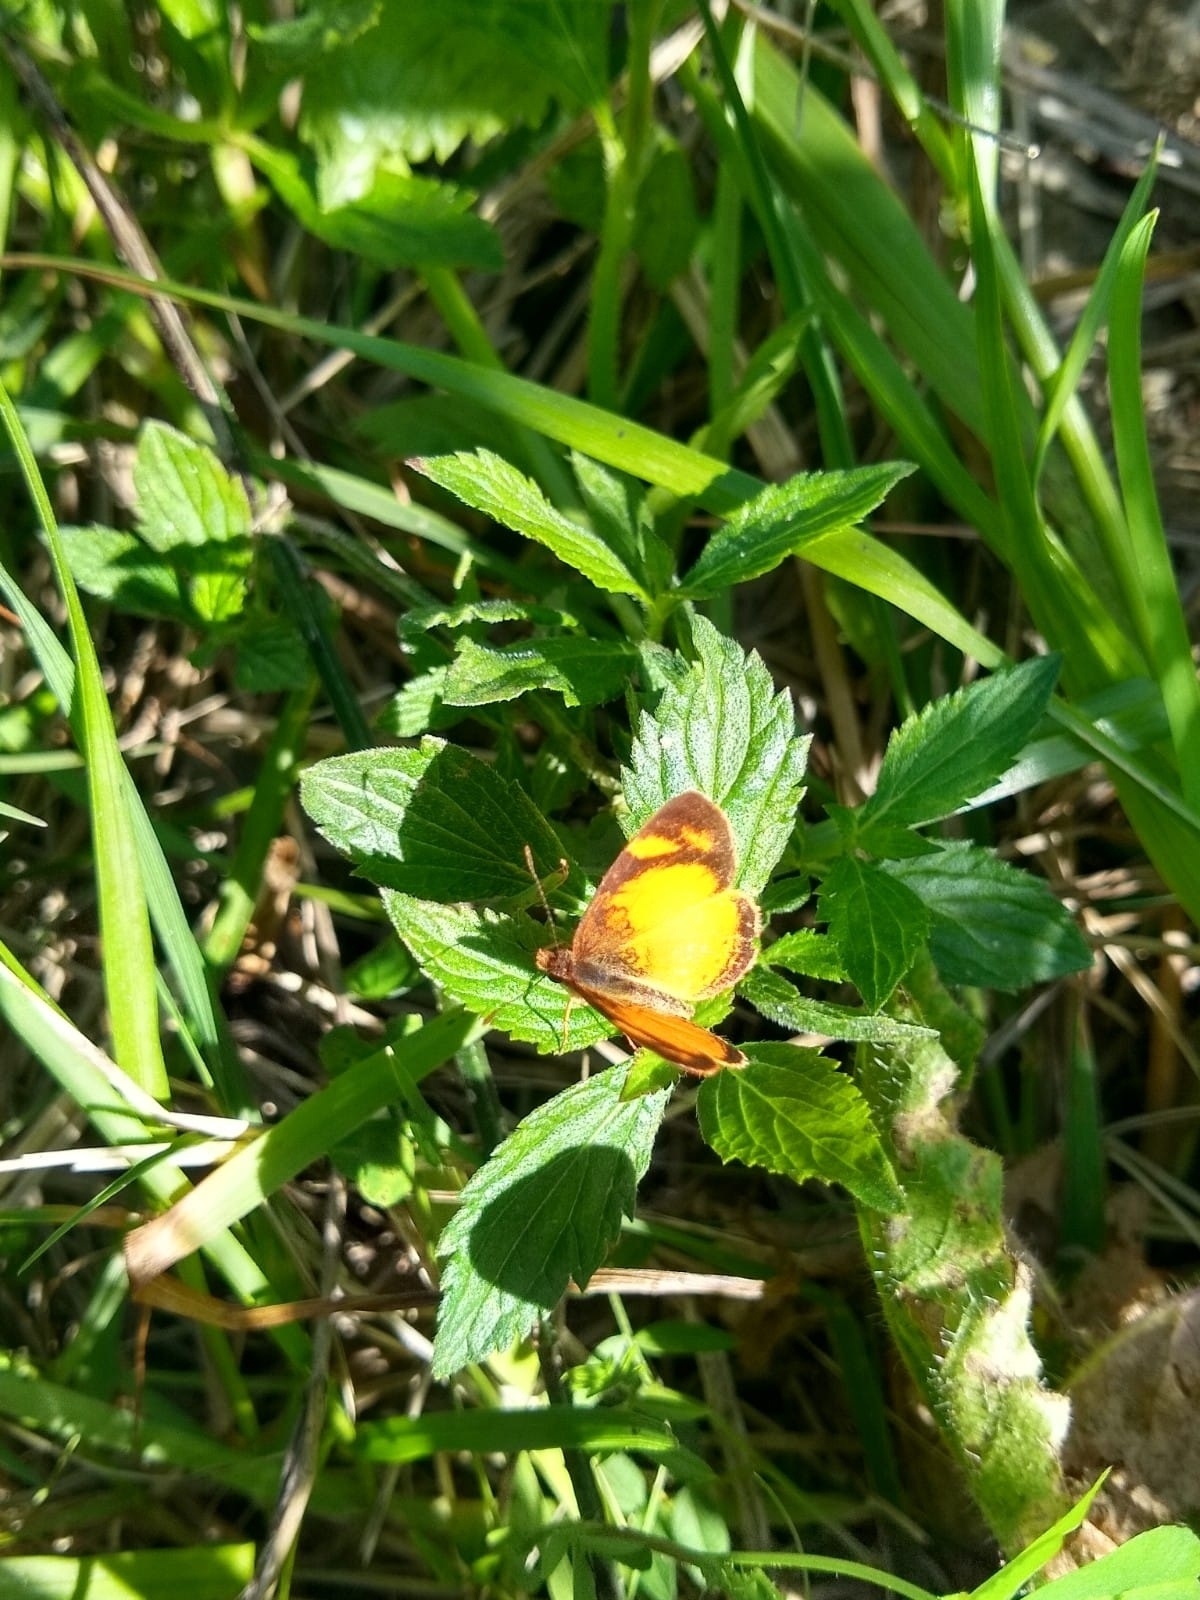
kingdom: Animalia
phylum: Arthropoda
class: Insecta
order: Lepidoptera
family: Nymphalidae
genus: Tegosa
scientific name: Tegosa claudina
